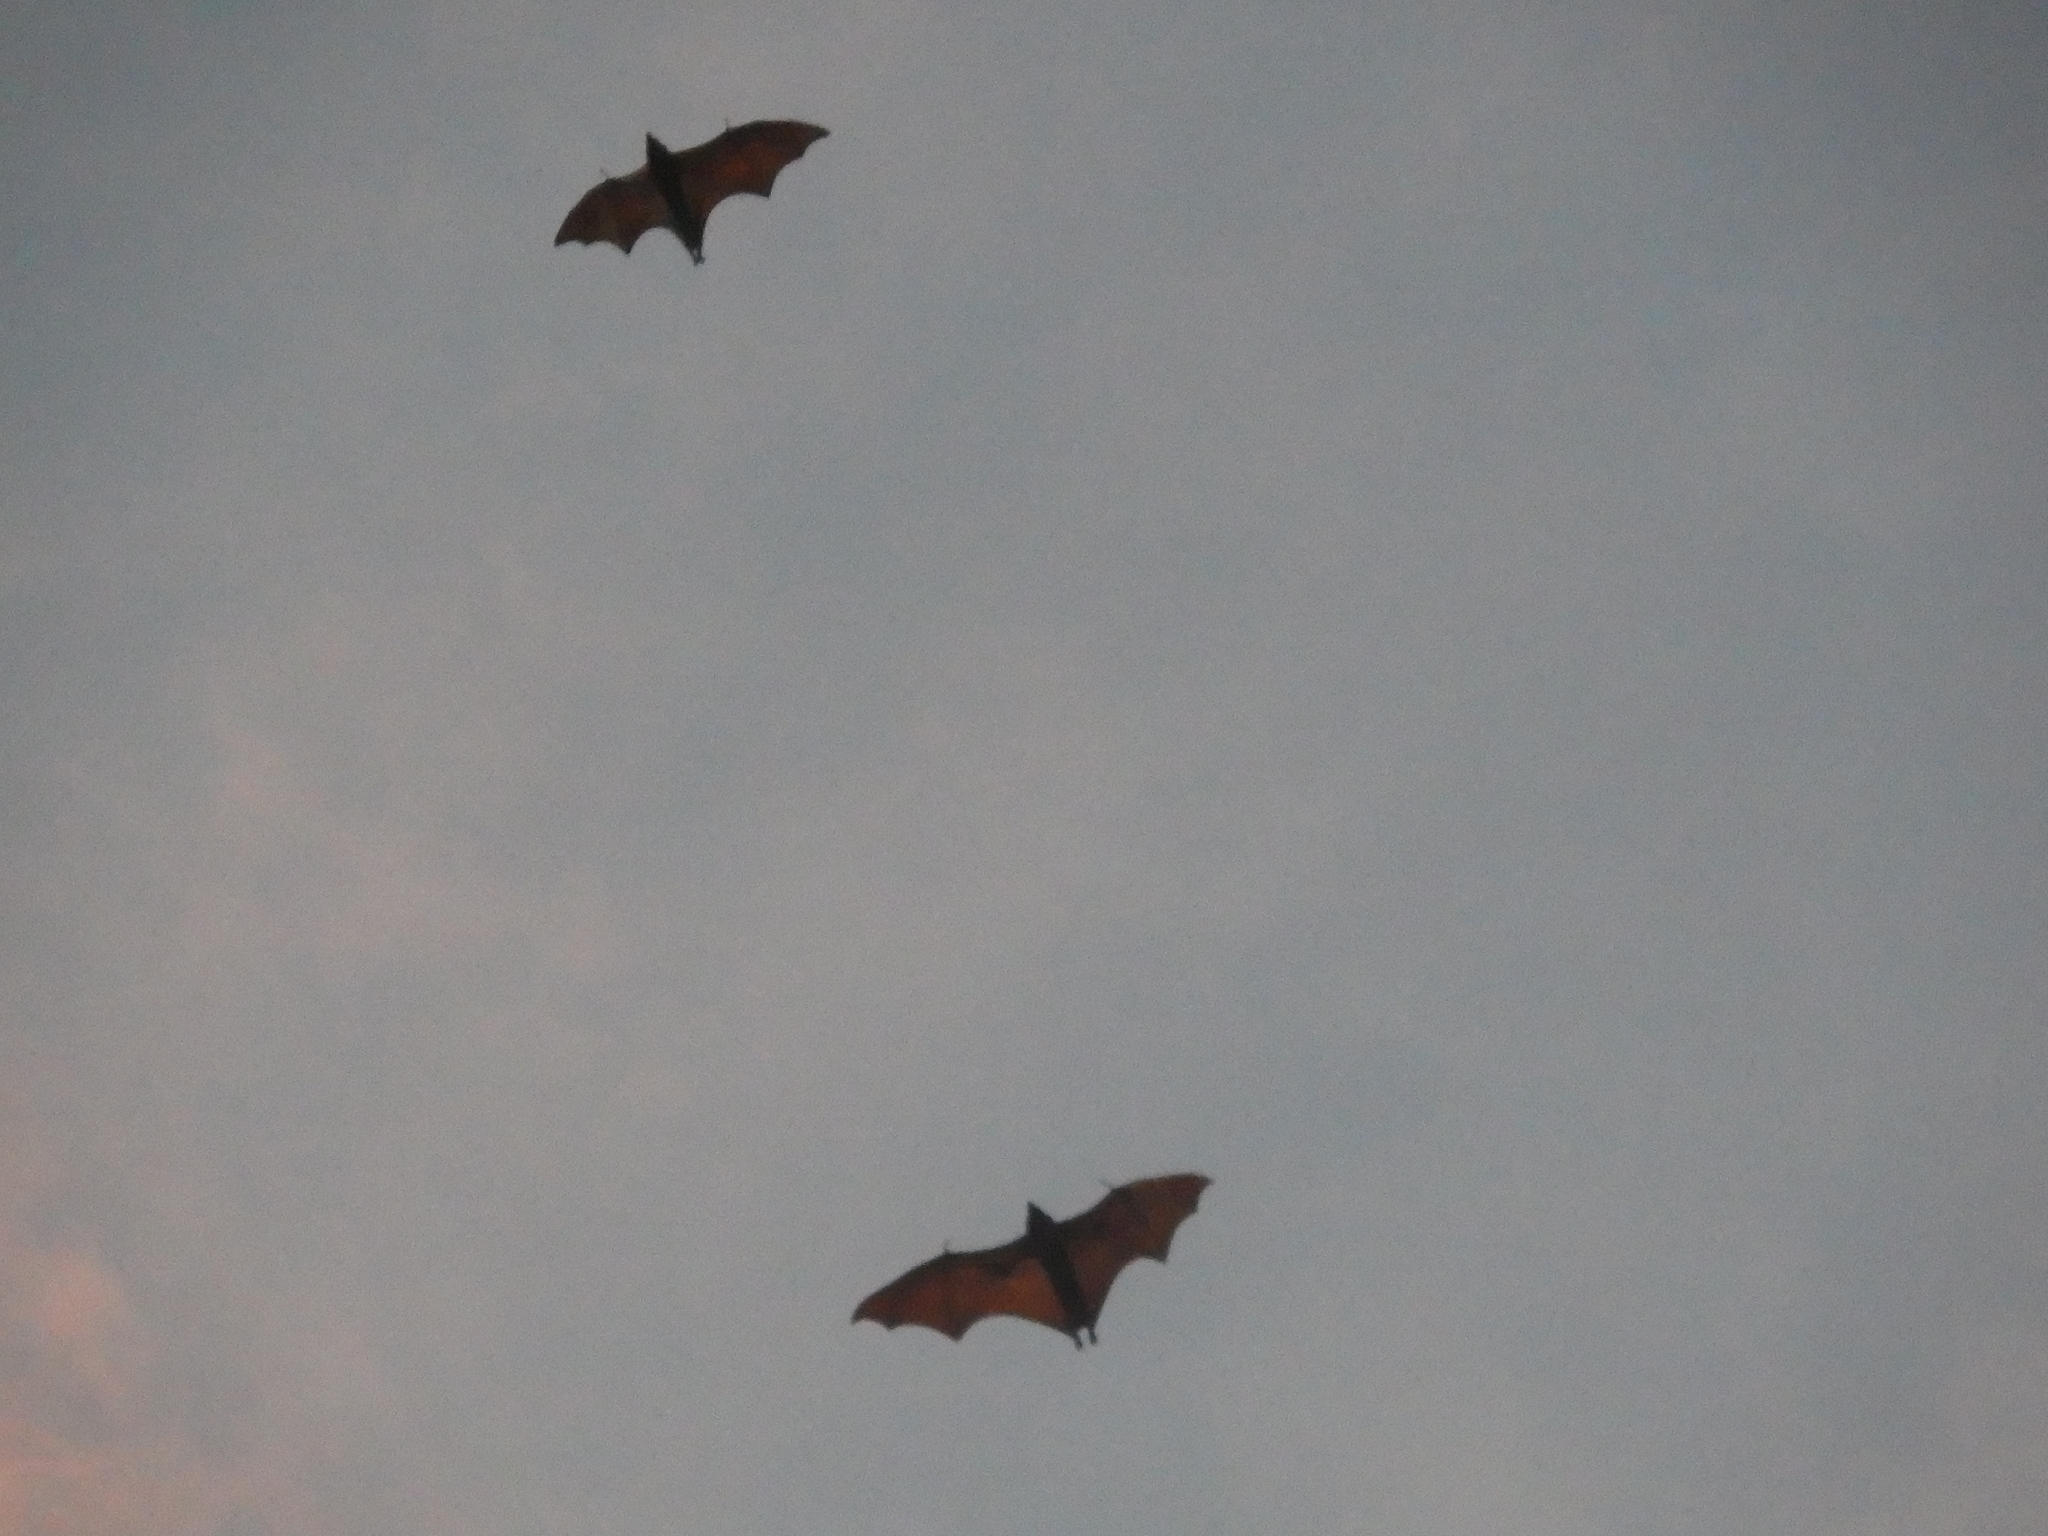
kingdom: Animalia
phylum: Chordata
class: Mammalia
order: Chiroptera
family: Pteropodidae
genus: Acerodon
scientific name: Acerodon macklotii
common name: Sunda fruit bat
